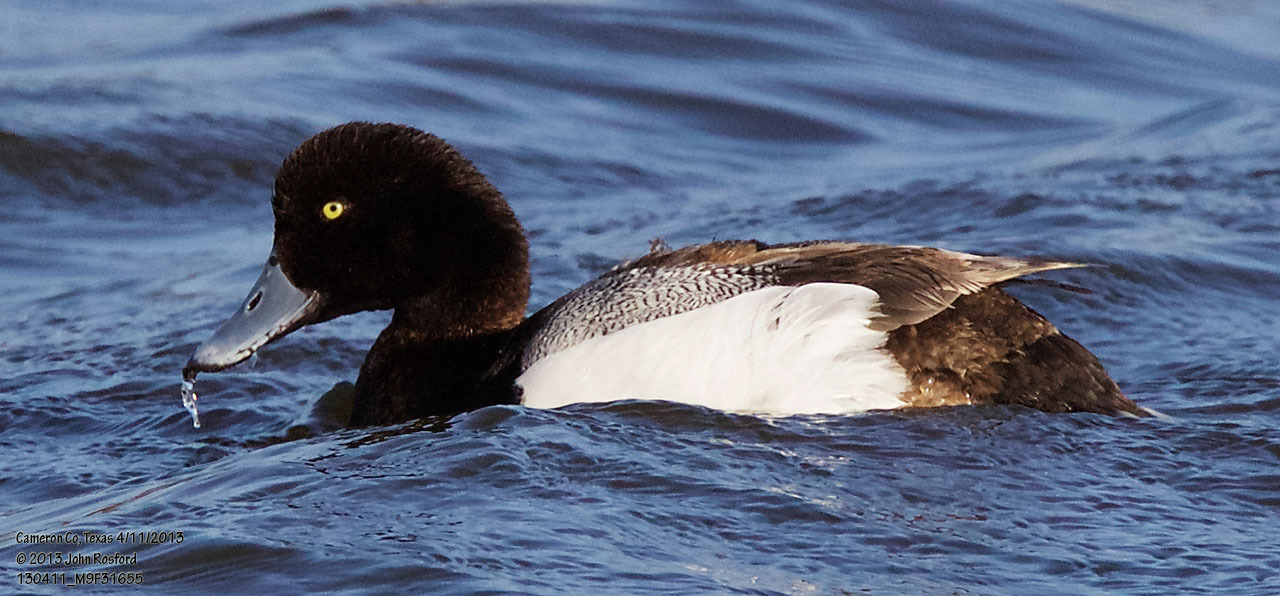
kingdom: Animalia
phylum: Chordata
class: Aves
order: Anseriformes
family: Anatidae
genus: Aythya
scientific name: Aythya marila
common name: Greater scaup
